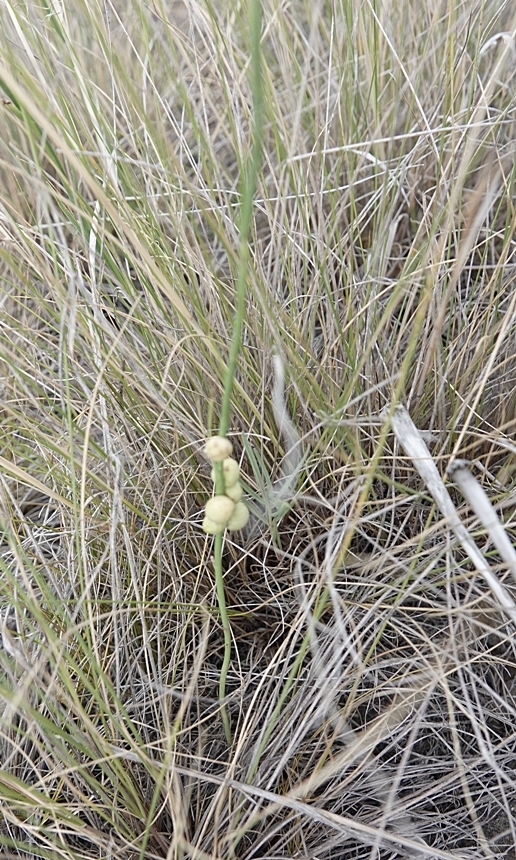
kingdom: Animalia
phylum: Arthropoda
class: Insecta
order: Hymenoptera
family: Cynipidae
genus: Antistrophus
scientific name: Antistrophus
